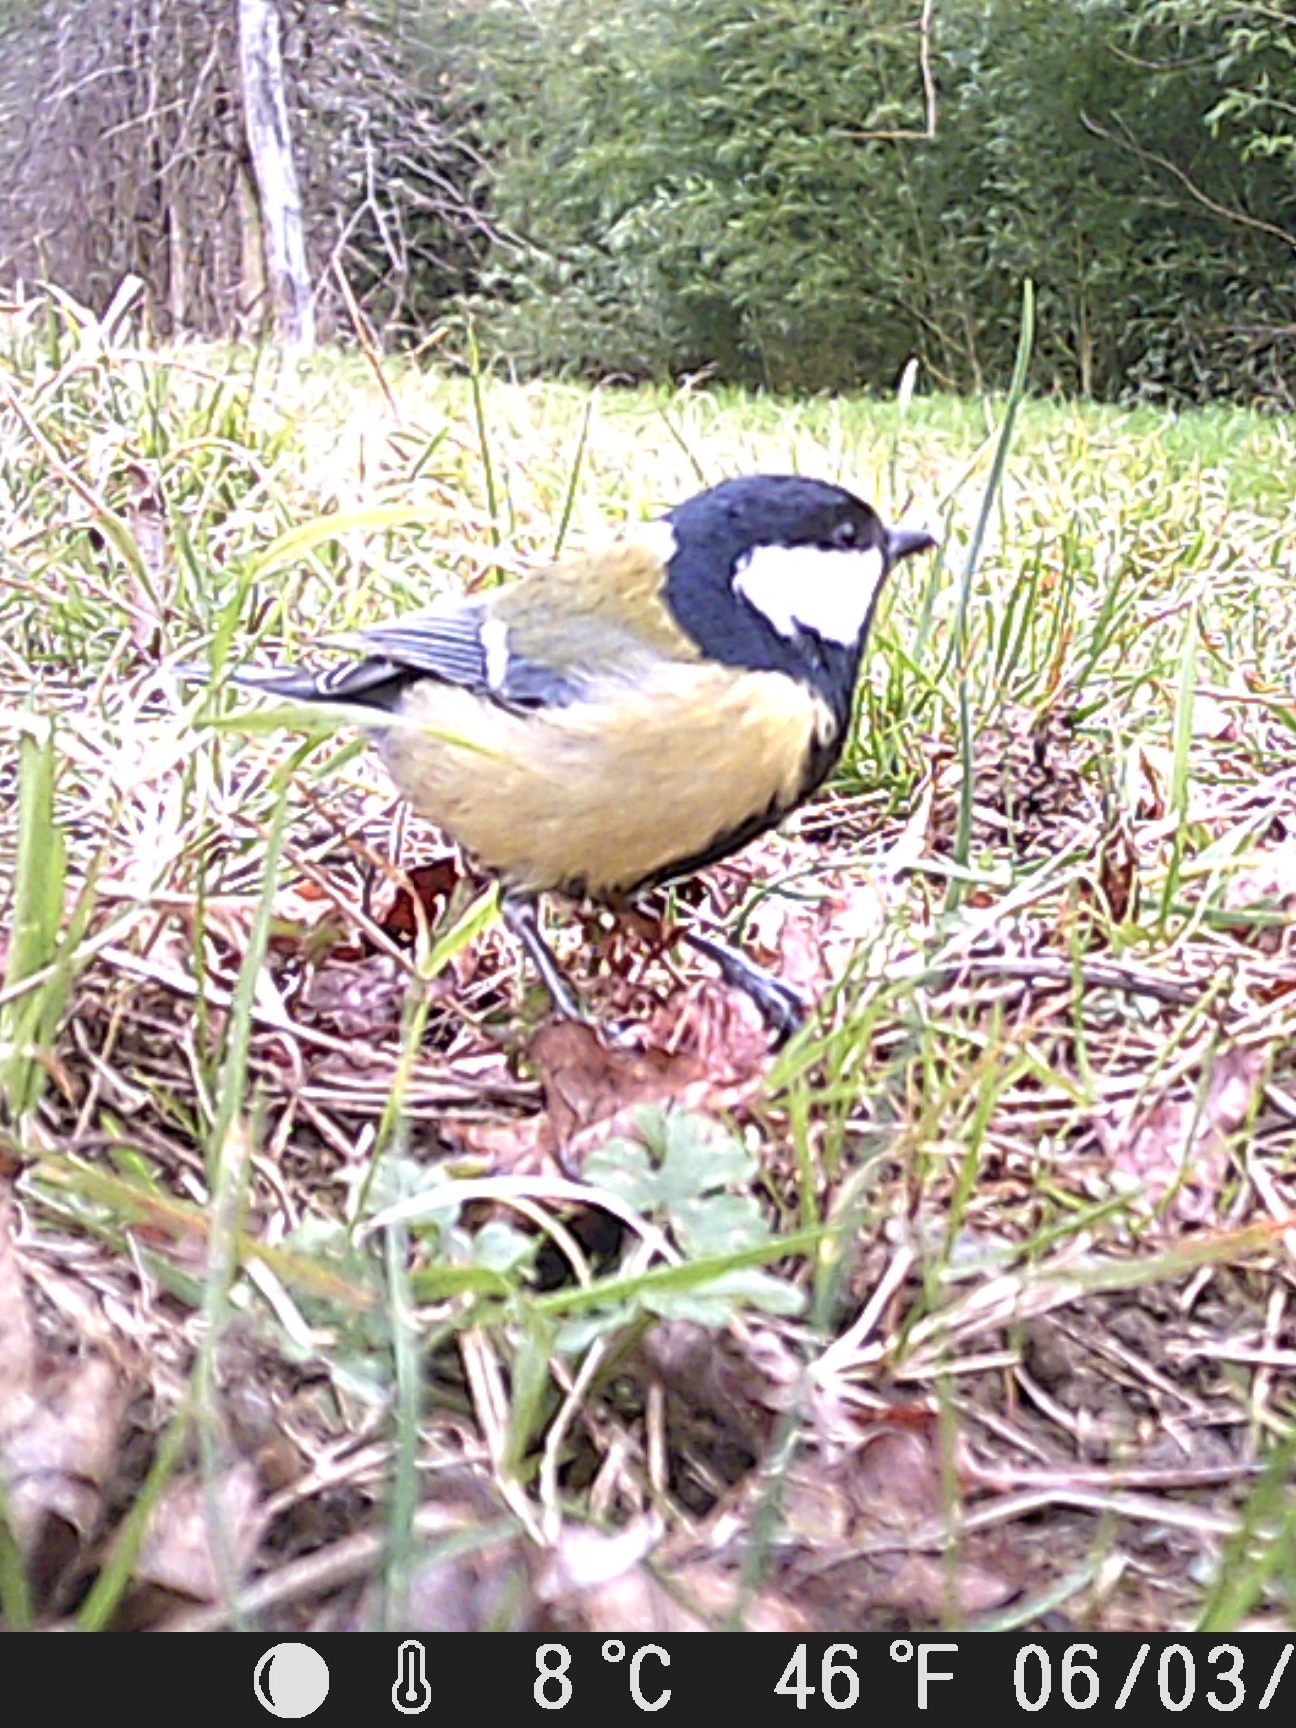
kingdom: Animalia
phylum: Chordata
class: Aves
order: Passeriformes
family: Paridae
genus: Parus
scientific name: Parus major
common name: Great tit
